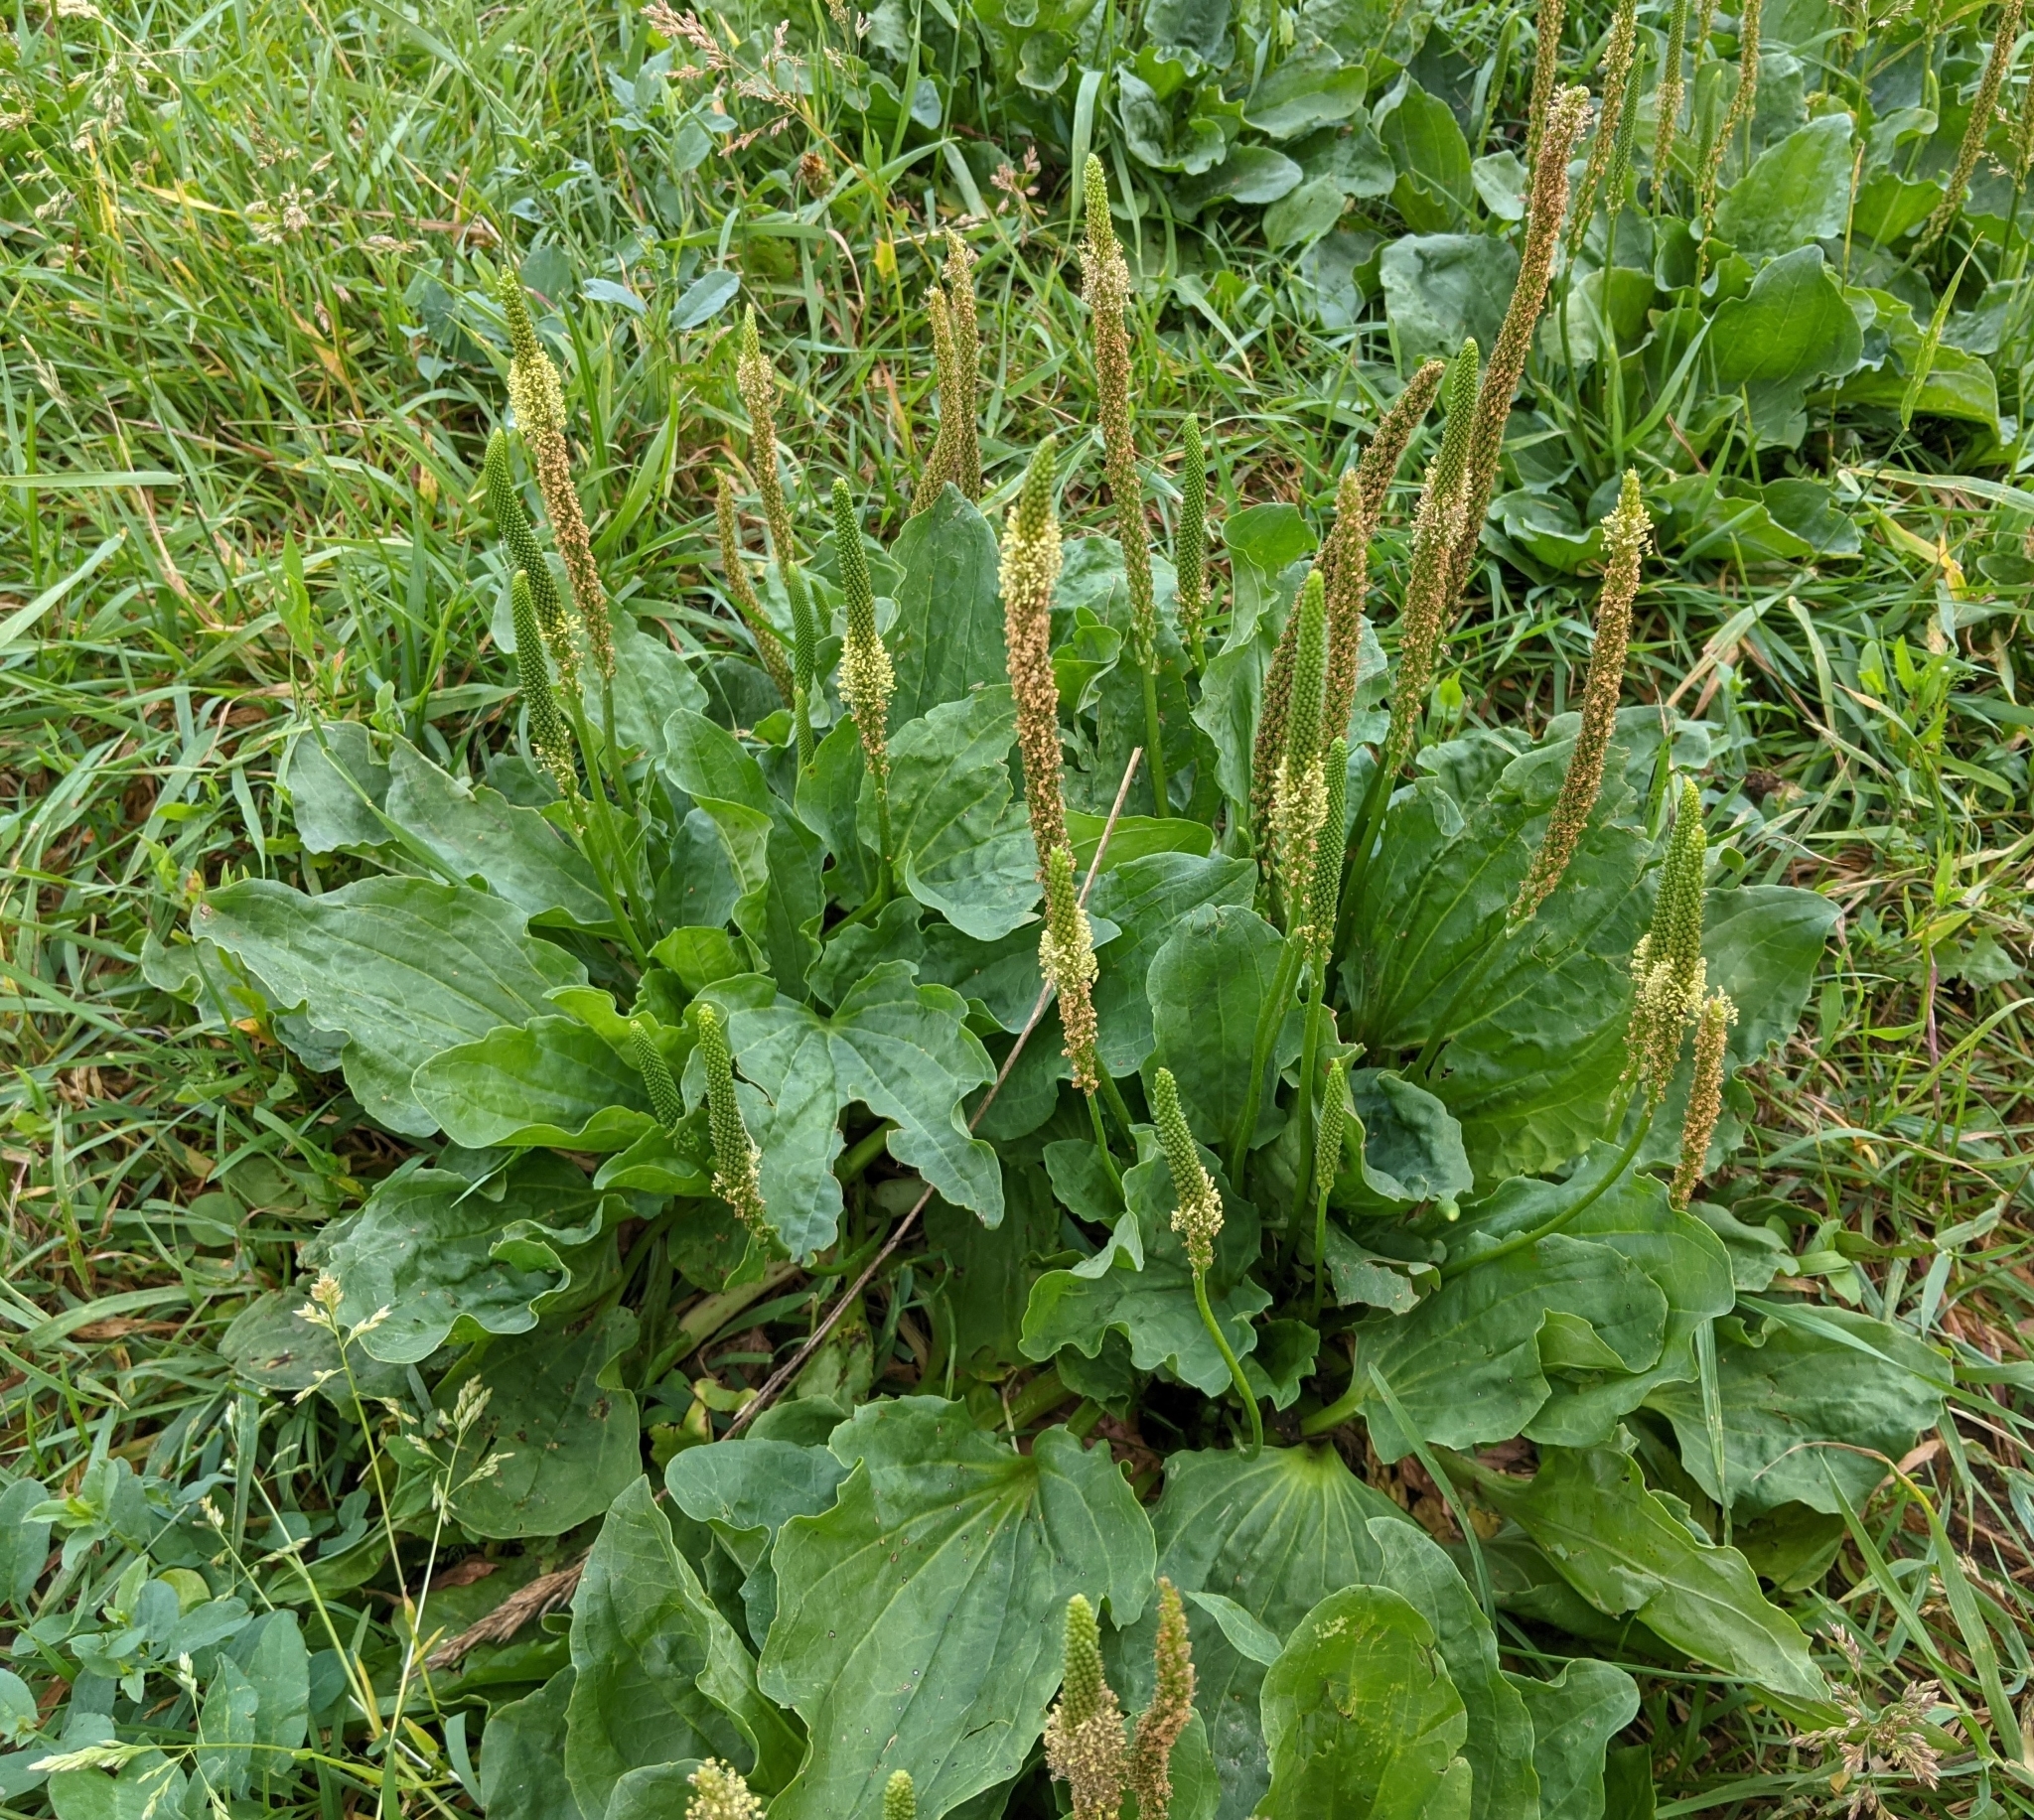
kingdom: Plantae
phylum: Tracheophyta
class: Magnoliopsida
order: Lamiales
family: Plantaginaceae
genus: Plantago
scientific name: Plantago major
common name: Common plantain
